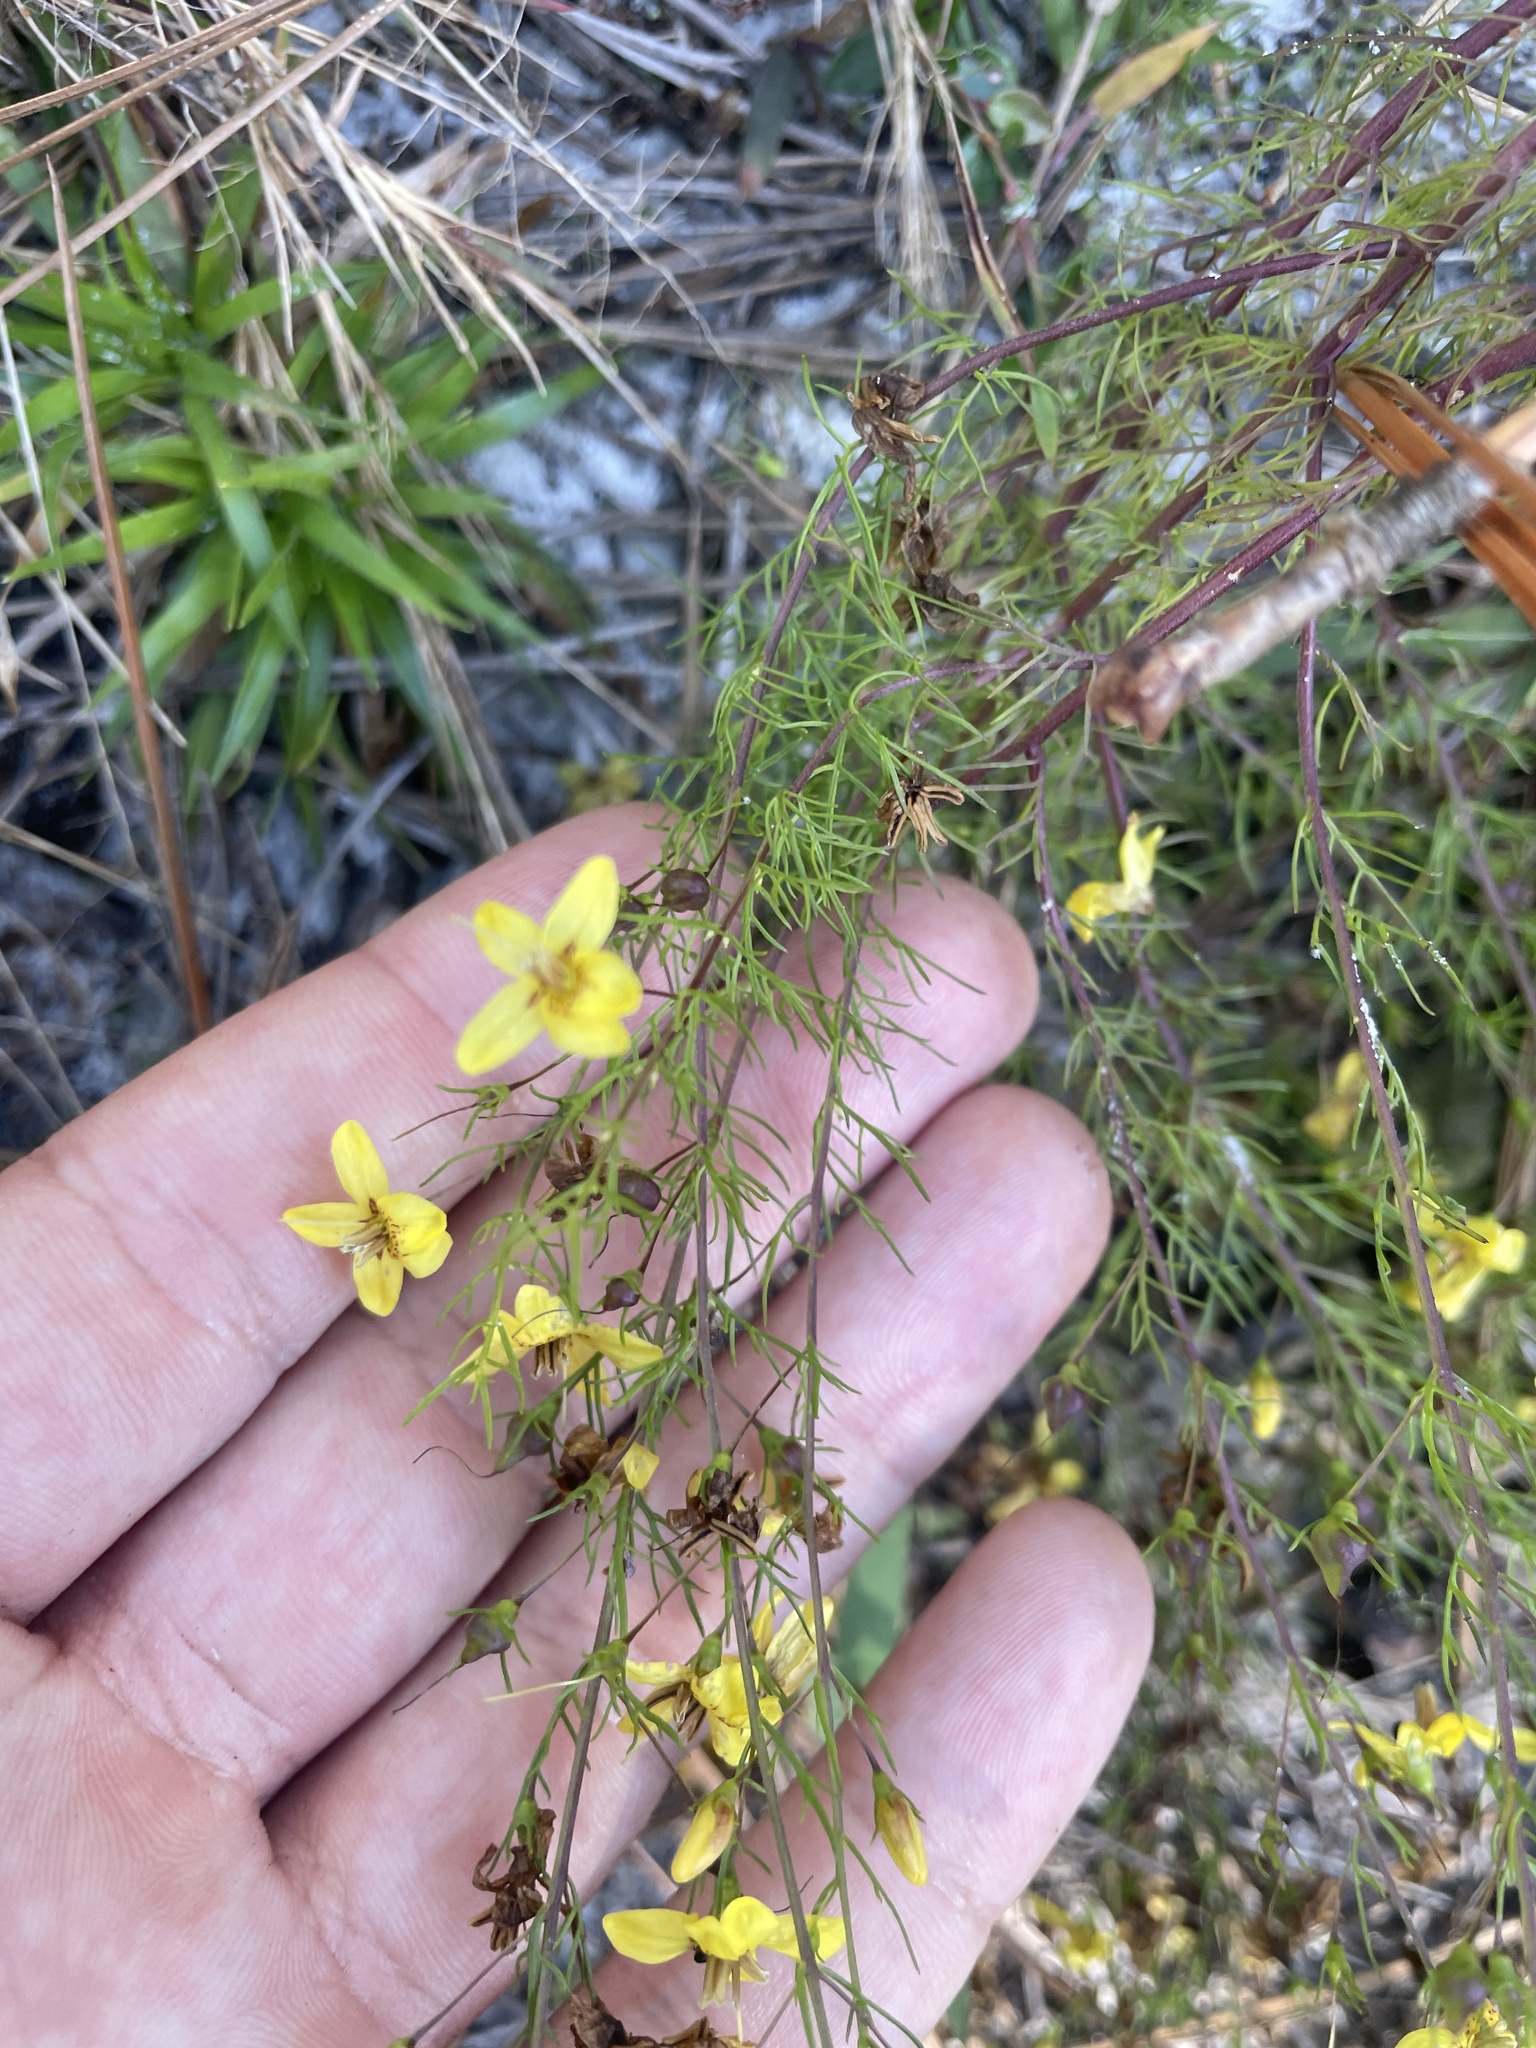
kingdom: Plantae
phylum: Tracheophyta
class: Magnoliopsida
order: Lamiales
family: Orobanchaceae
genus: Seymeria
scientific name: Seymeria cassioides
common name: Yaupon black-senna
